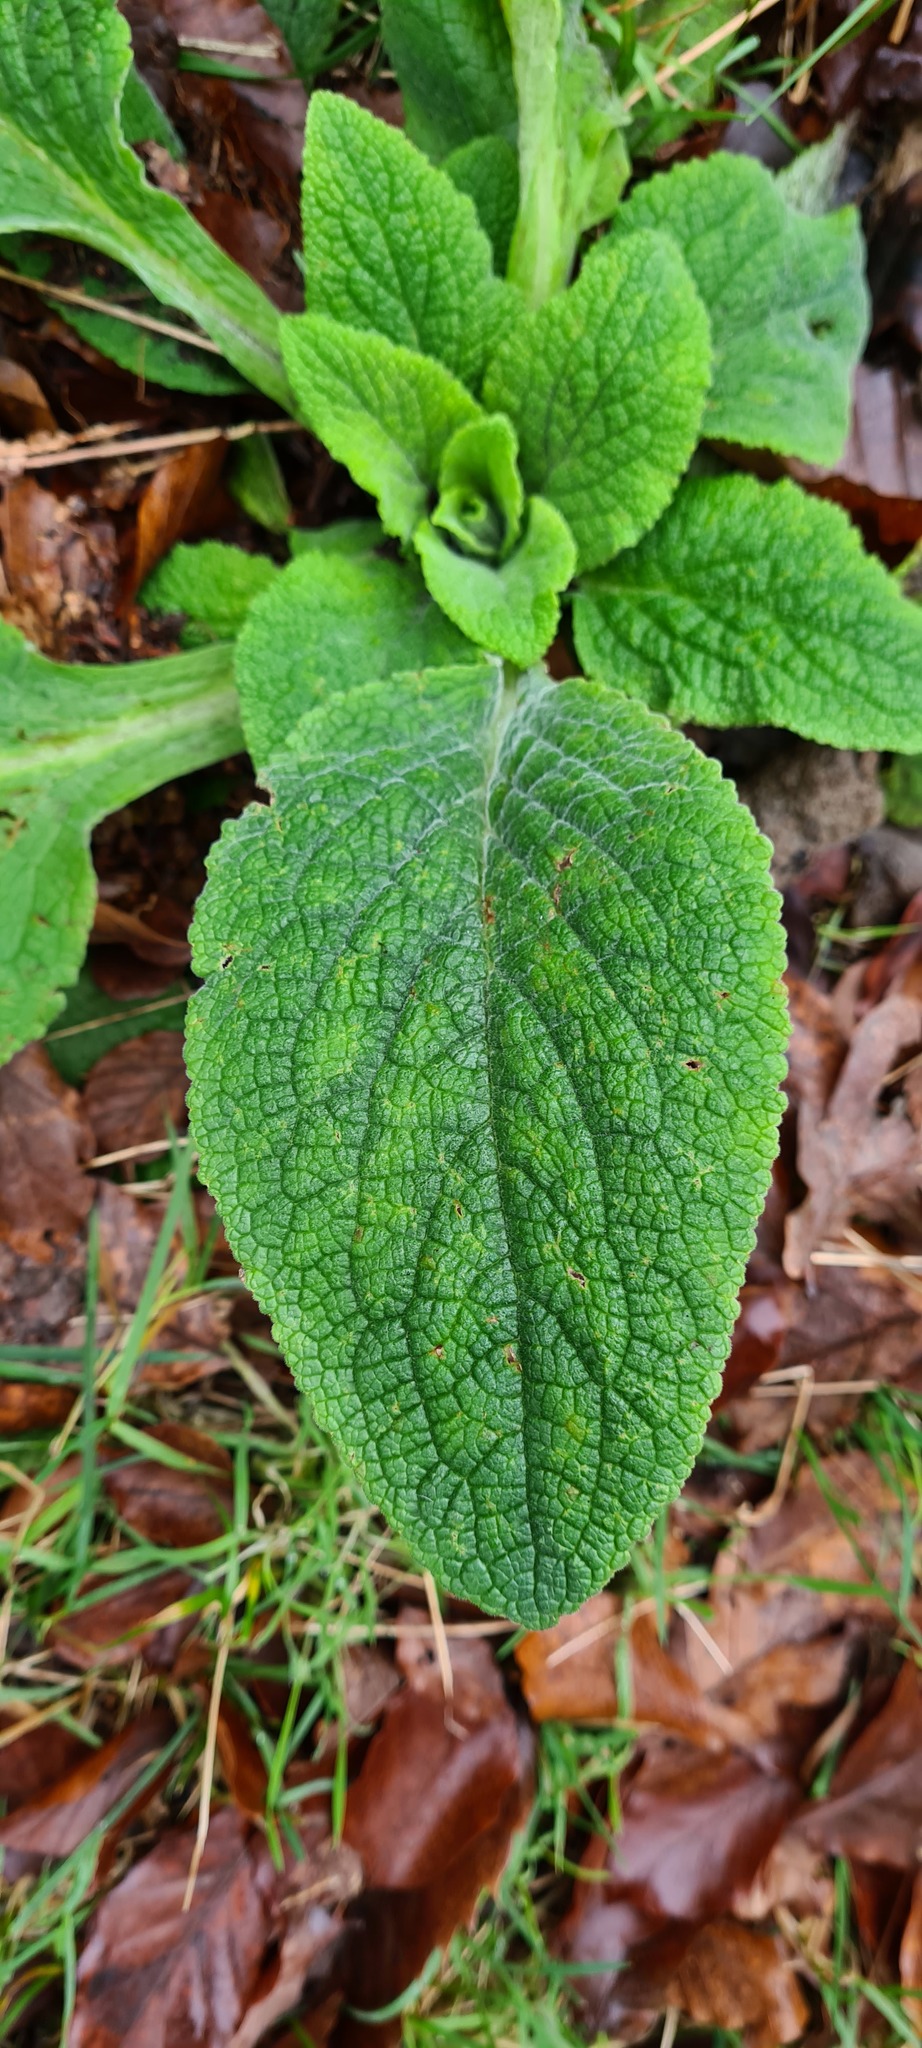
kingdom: Plantae
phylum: Tracheophyta
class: Magnoliopsida
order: Lamiales
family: Plantaginaceae
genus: Digitalis
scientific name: Digitalis purpurea
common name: Foxglove
